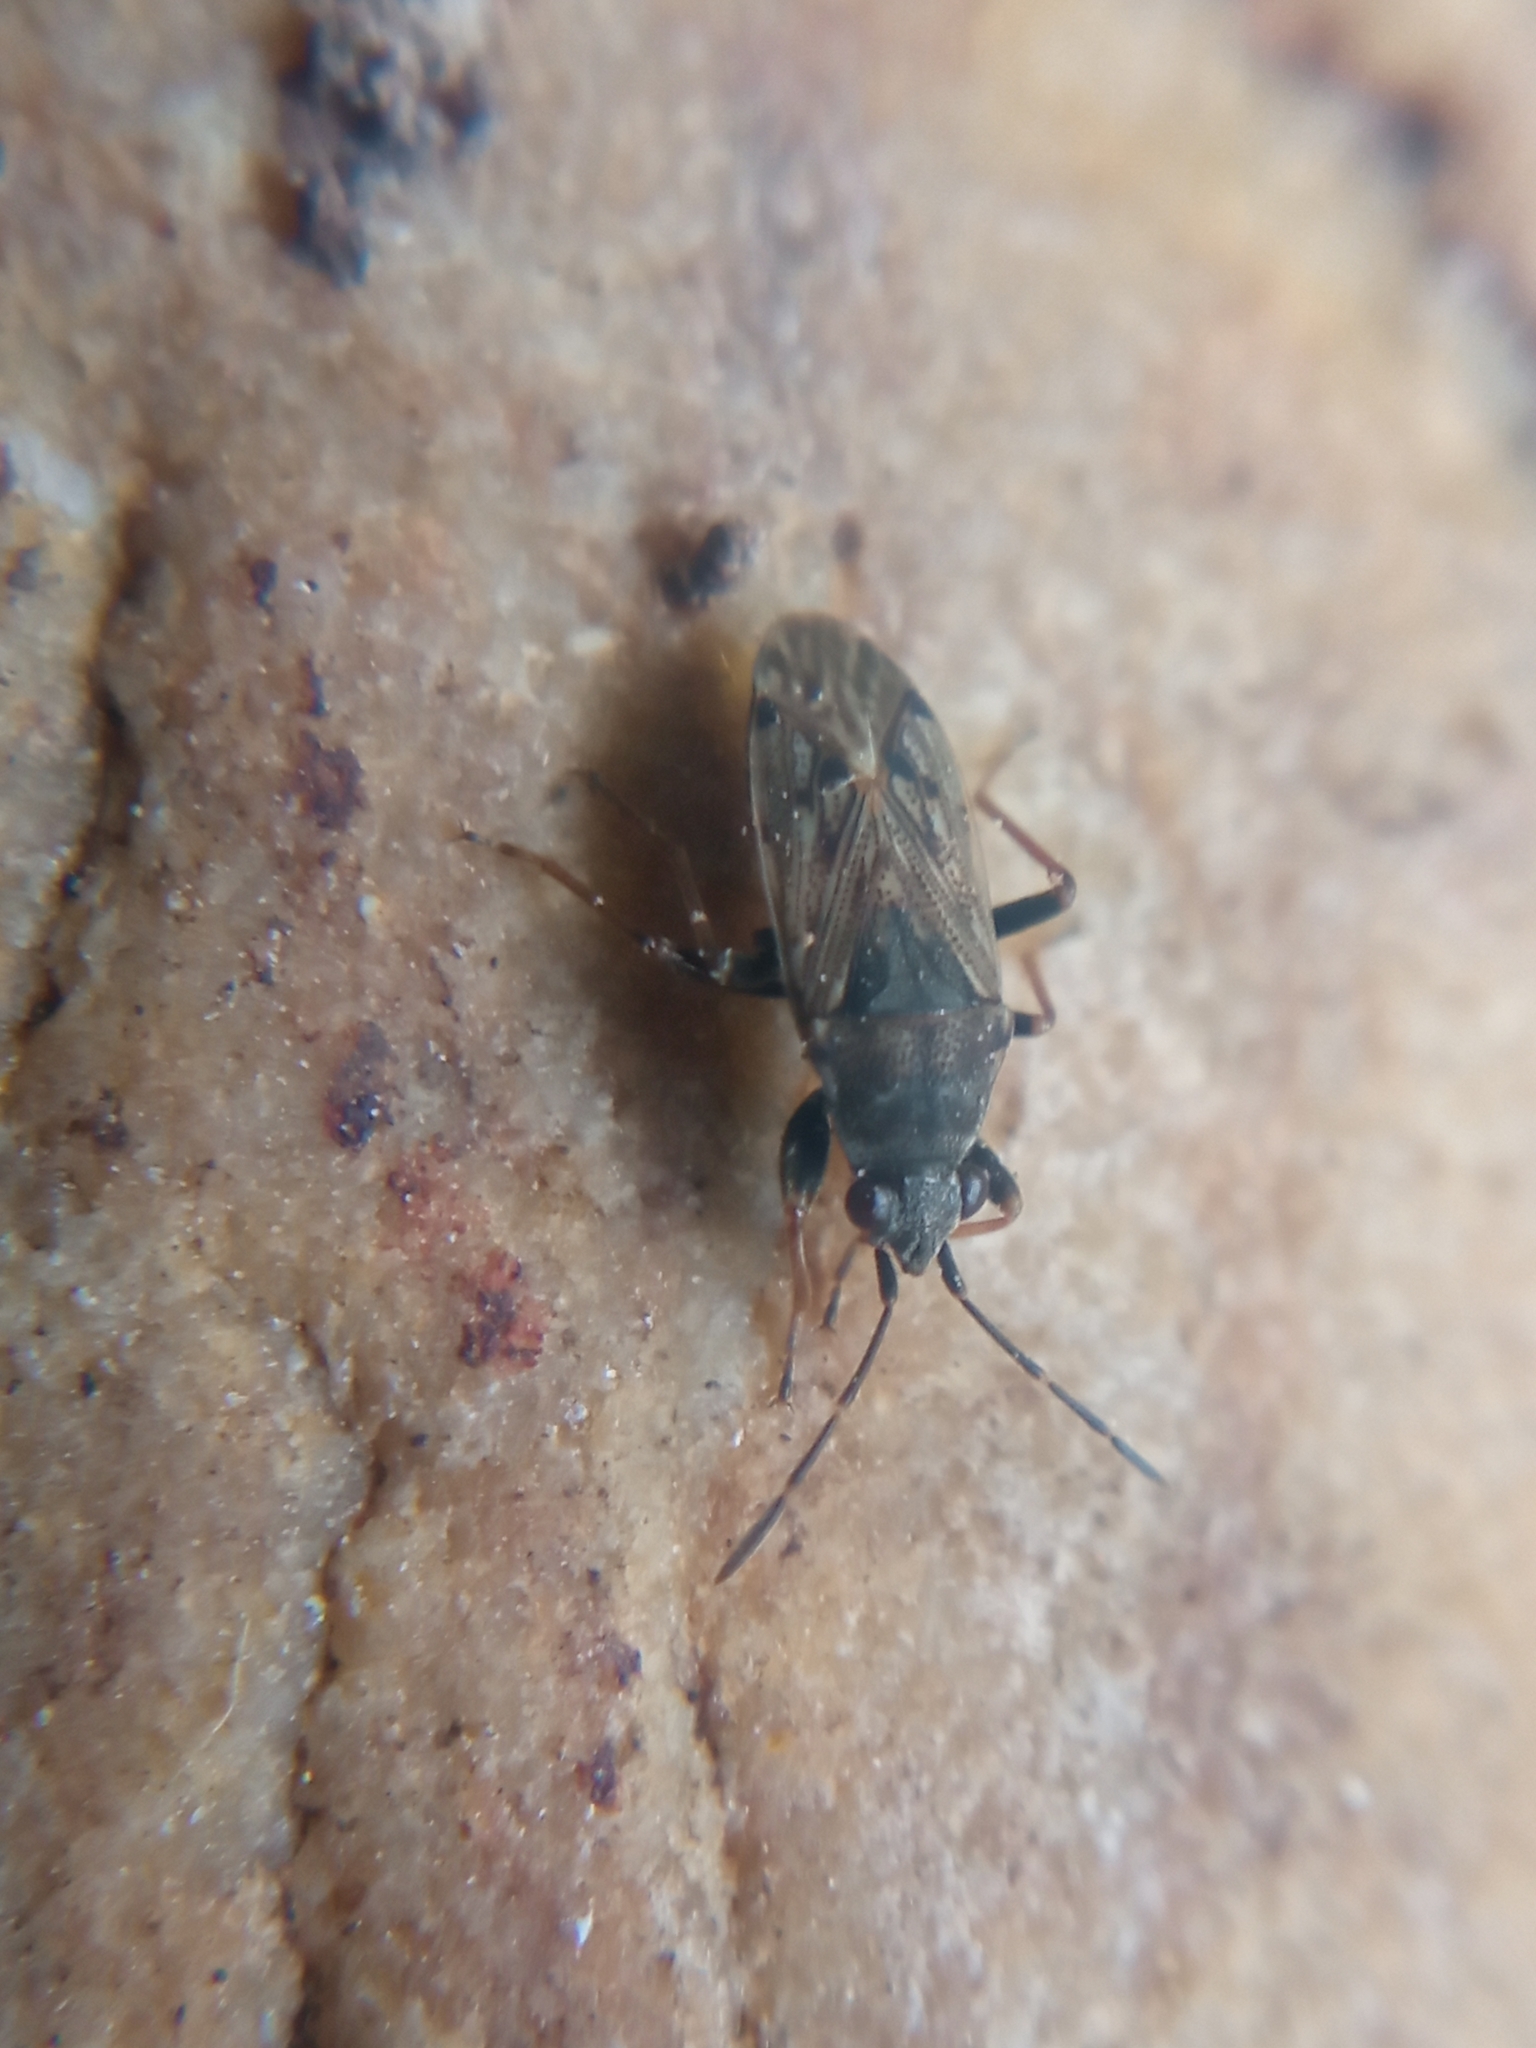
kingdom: Animalia
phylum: Arthropoda
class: Insecta
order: Hemiptera
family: Rhyparochromidae
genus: Peritrechus
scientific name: Peritrechus gracilicornis
